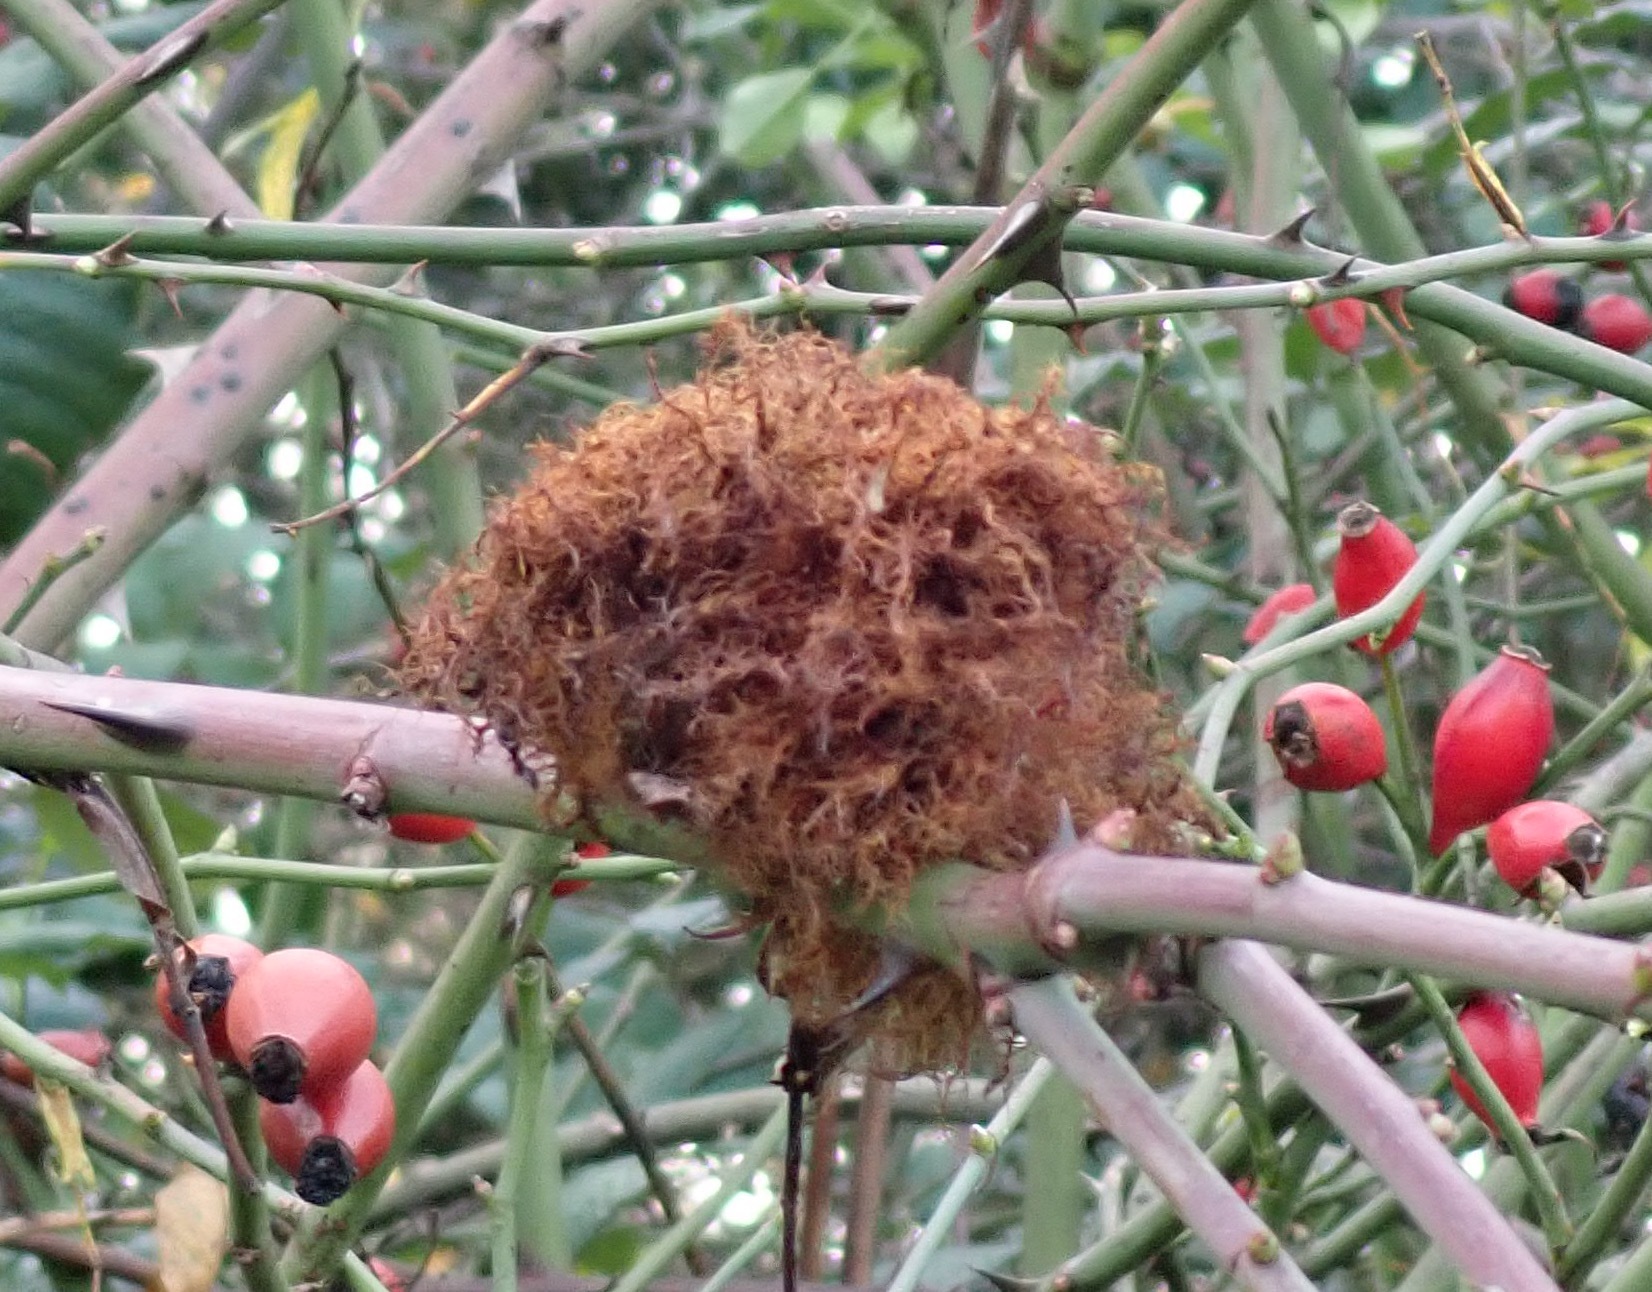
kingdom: Animalia
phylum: Arthropoda
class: Insecta
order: Hymenoptera
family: Cynipidae
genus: Diplolepis
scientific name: Diplolepis rosae
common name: Bedeguar gall
